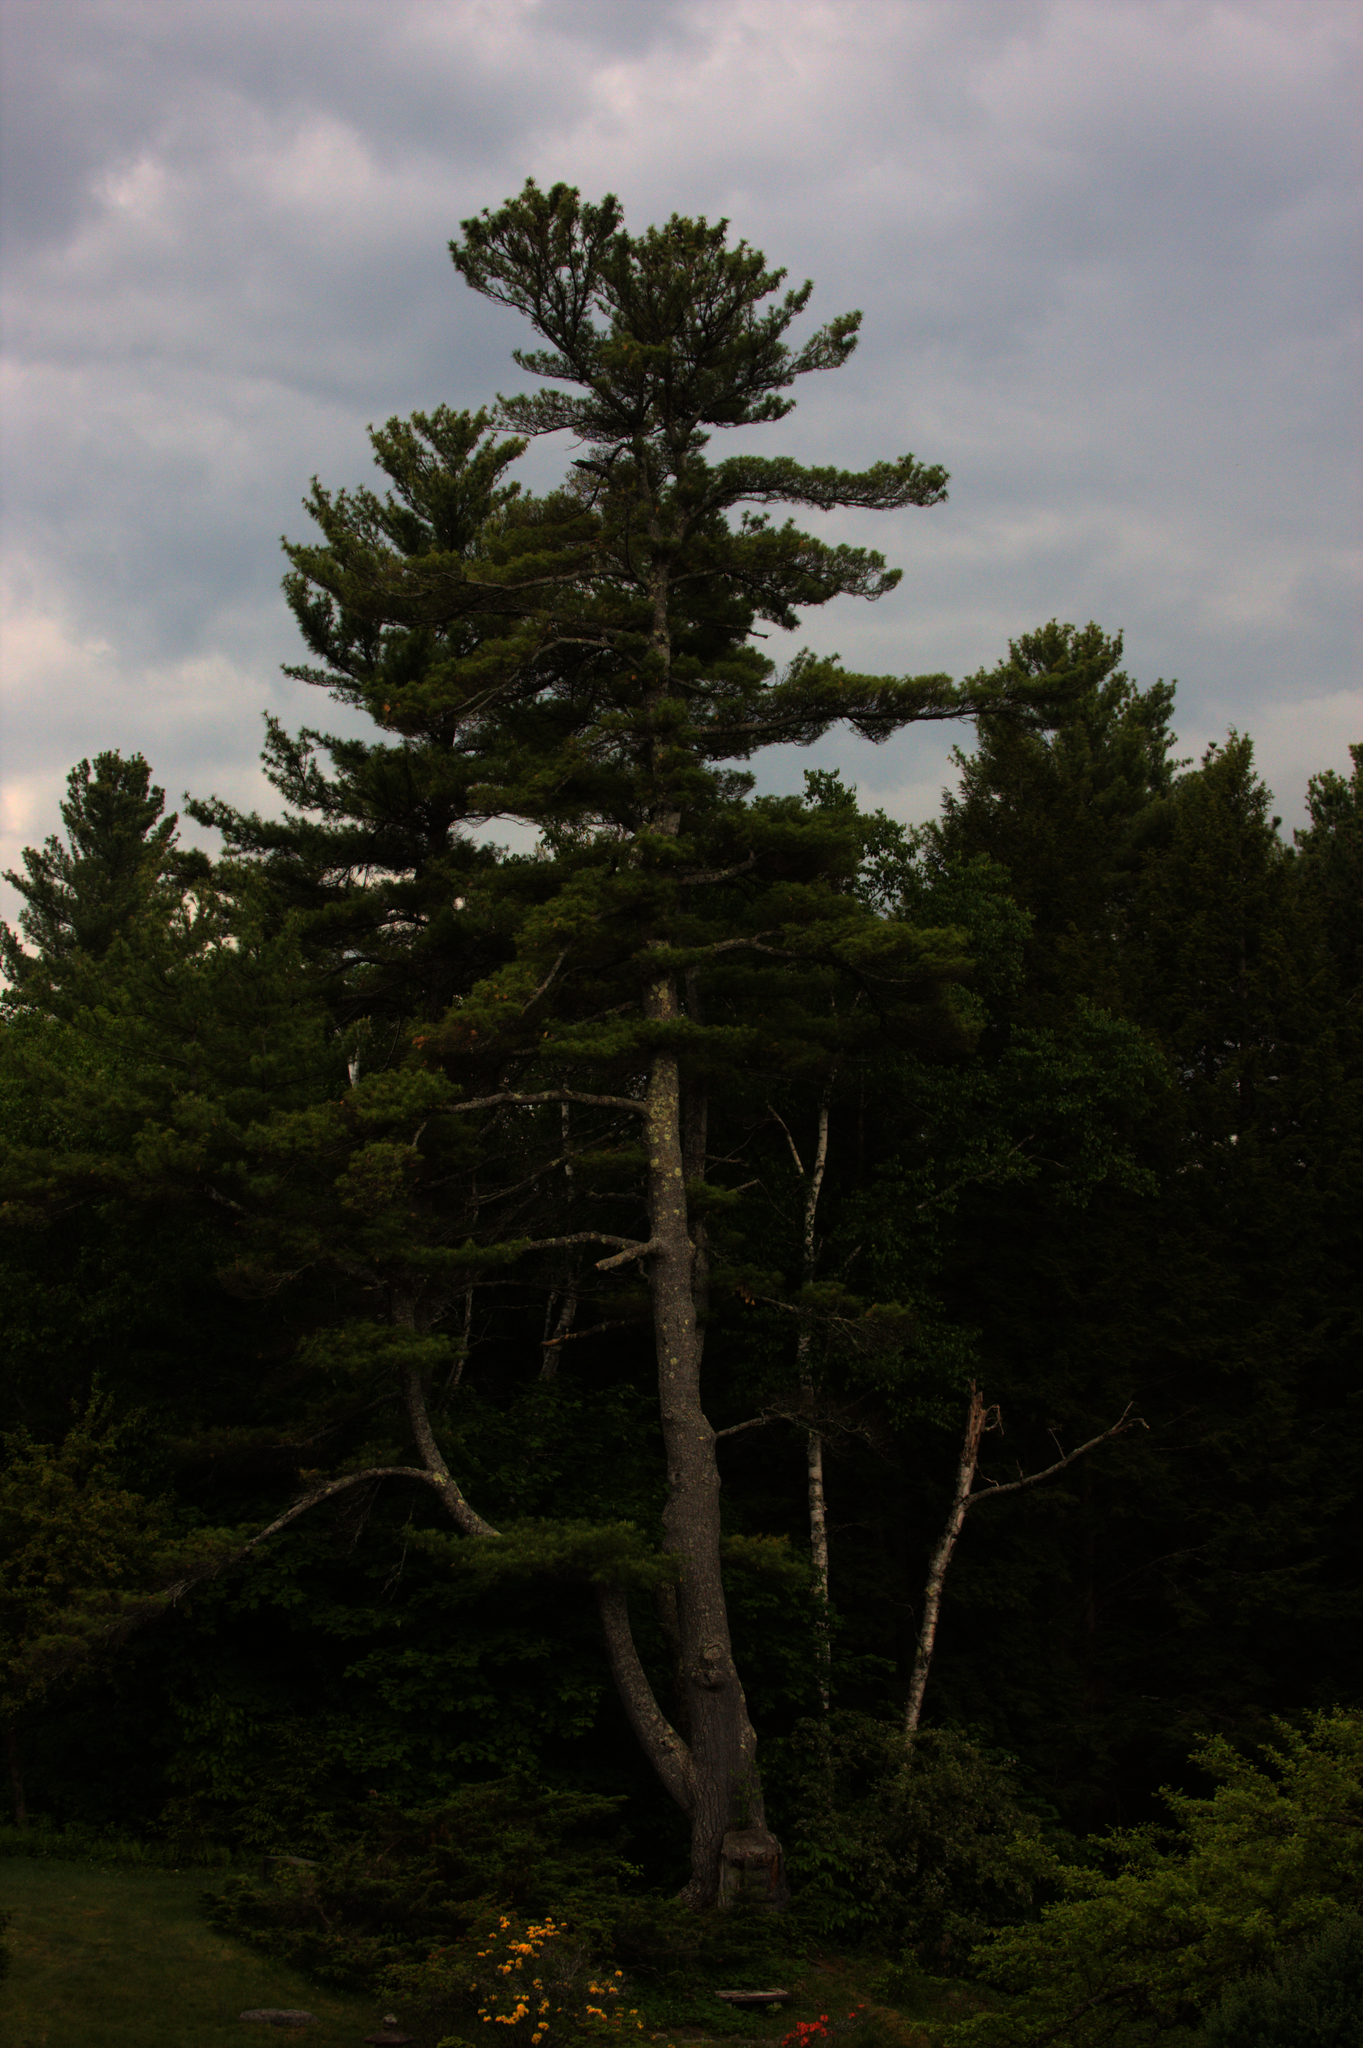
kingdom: Plantae
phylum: Tracheophyta
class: Pinopsida
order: Pinales
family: Pinaceae
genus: Pinus
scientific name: Pinus strobus
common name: Weymouth pine
